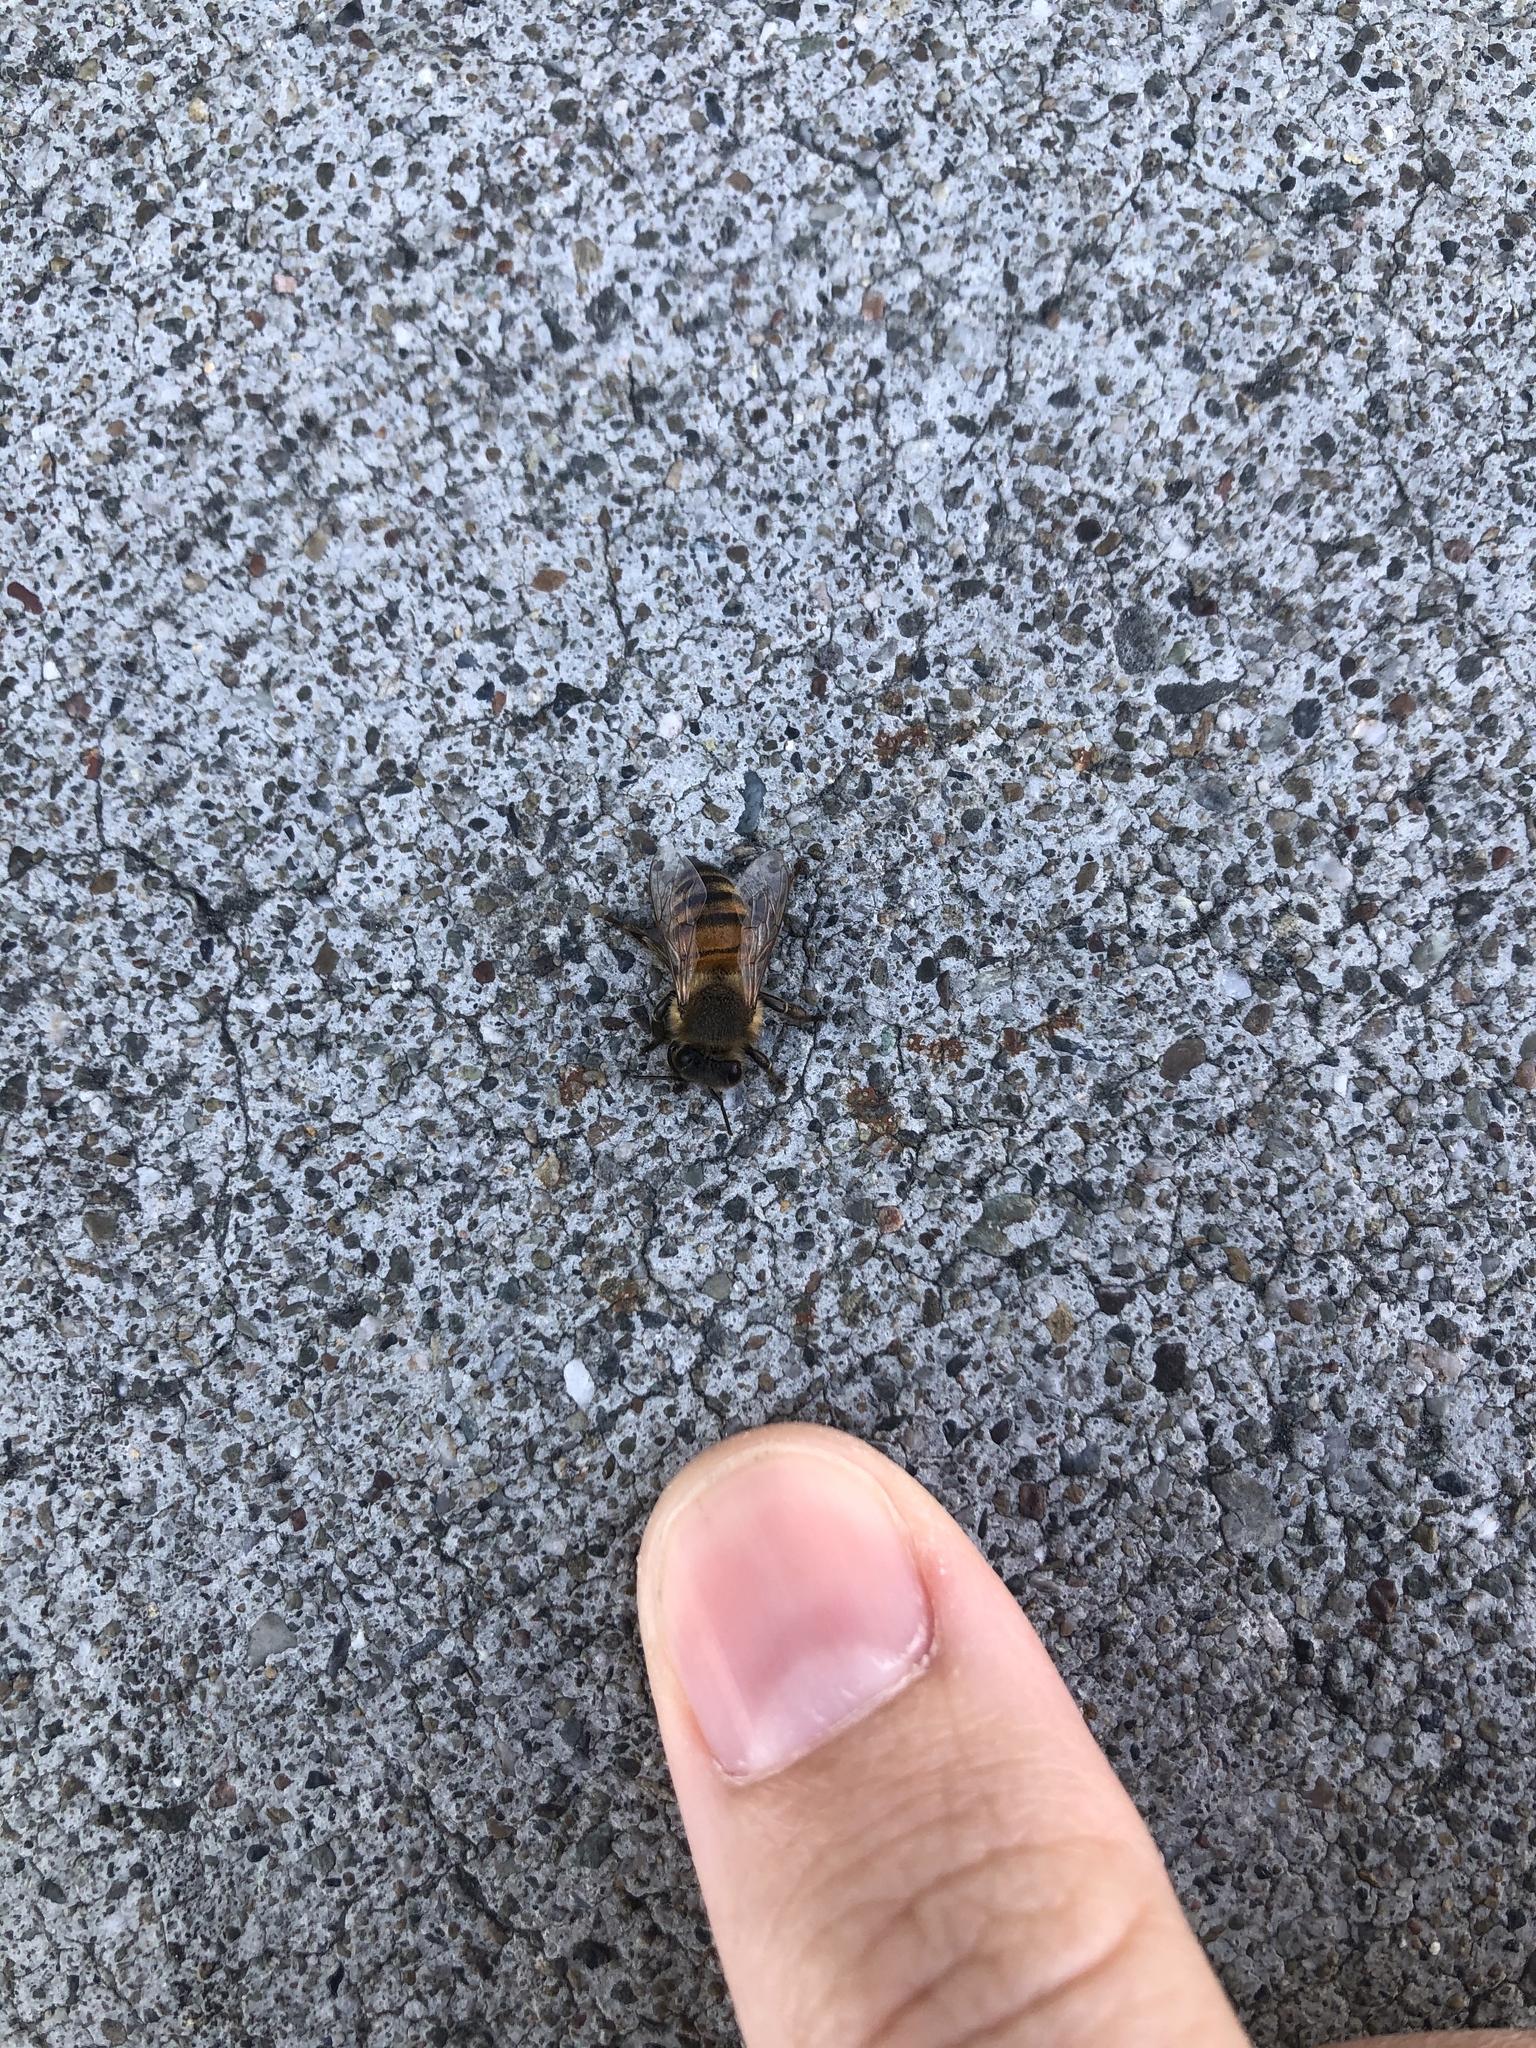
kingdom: Animalia
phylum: Arthropoda
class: Insecta
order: Hymenoptera
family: Apidae
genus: Apis
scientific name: Apis mellifera
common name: Honey bee
